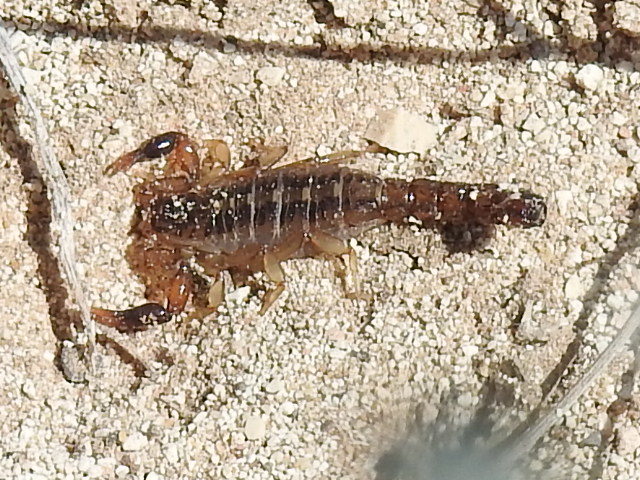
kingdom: Animalia
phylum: Arthropoda
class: Arachnida
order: Scorpiones
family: Vaejovidae
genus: Maaykuyak
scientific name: Maaykuyak waueri
